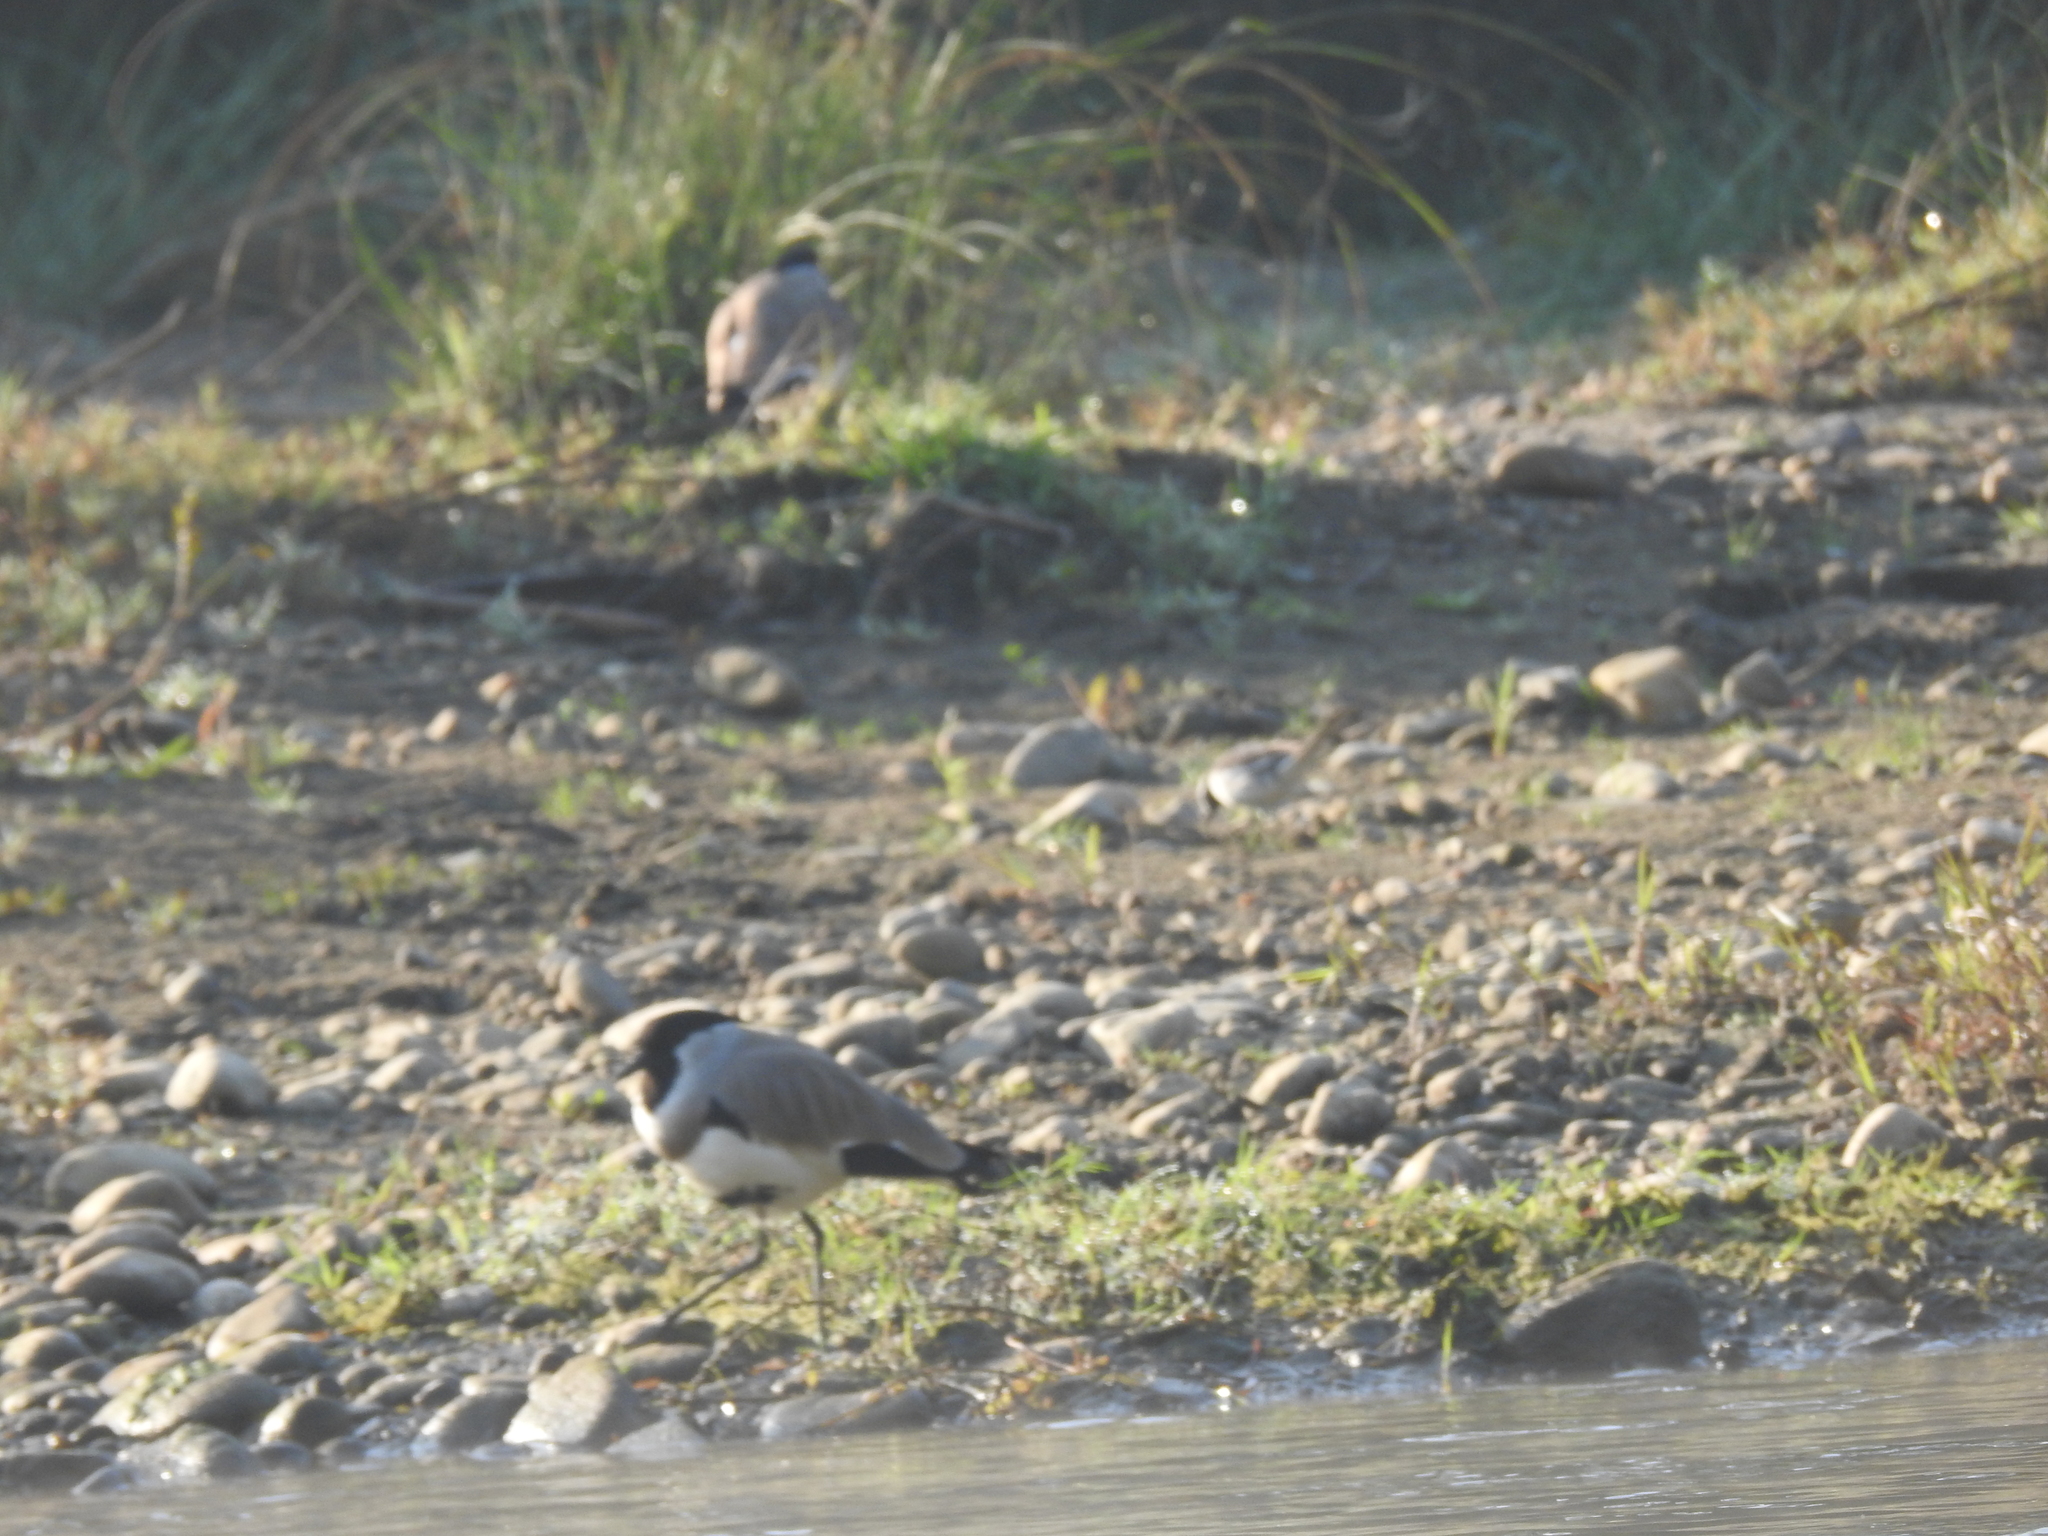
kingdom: Animalia
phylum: Chordata
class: Aves
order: Charadriiformes
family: Charadriidae
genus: Vanellus
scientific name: Vanellus duvaucelii
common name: River lapwing
